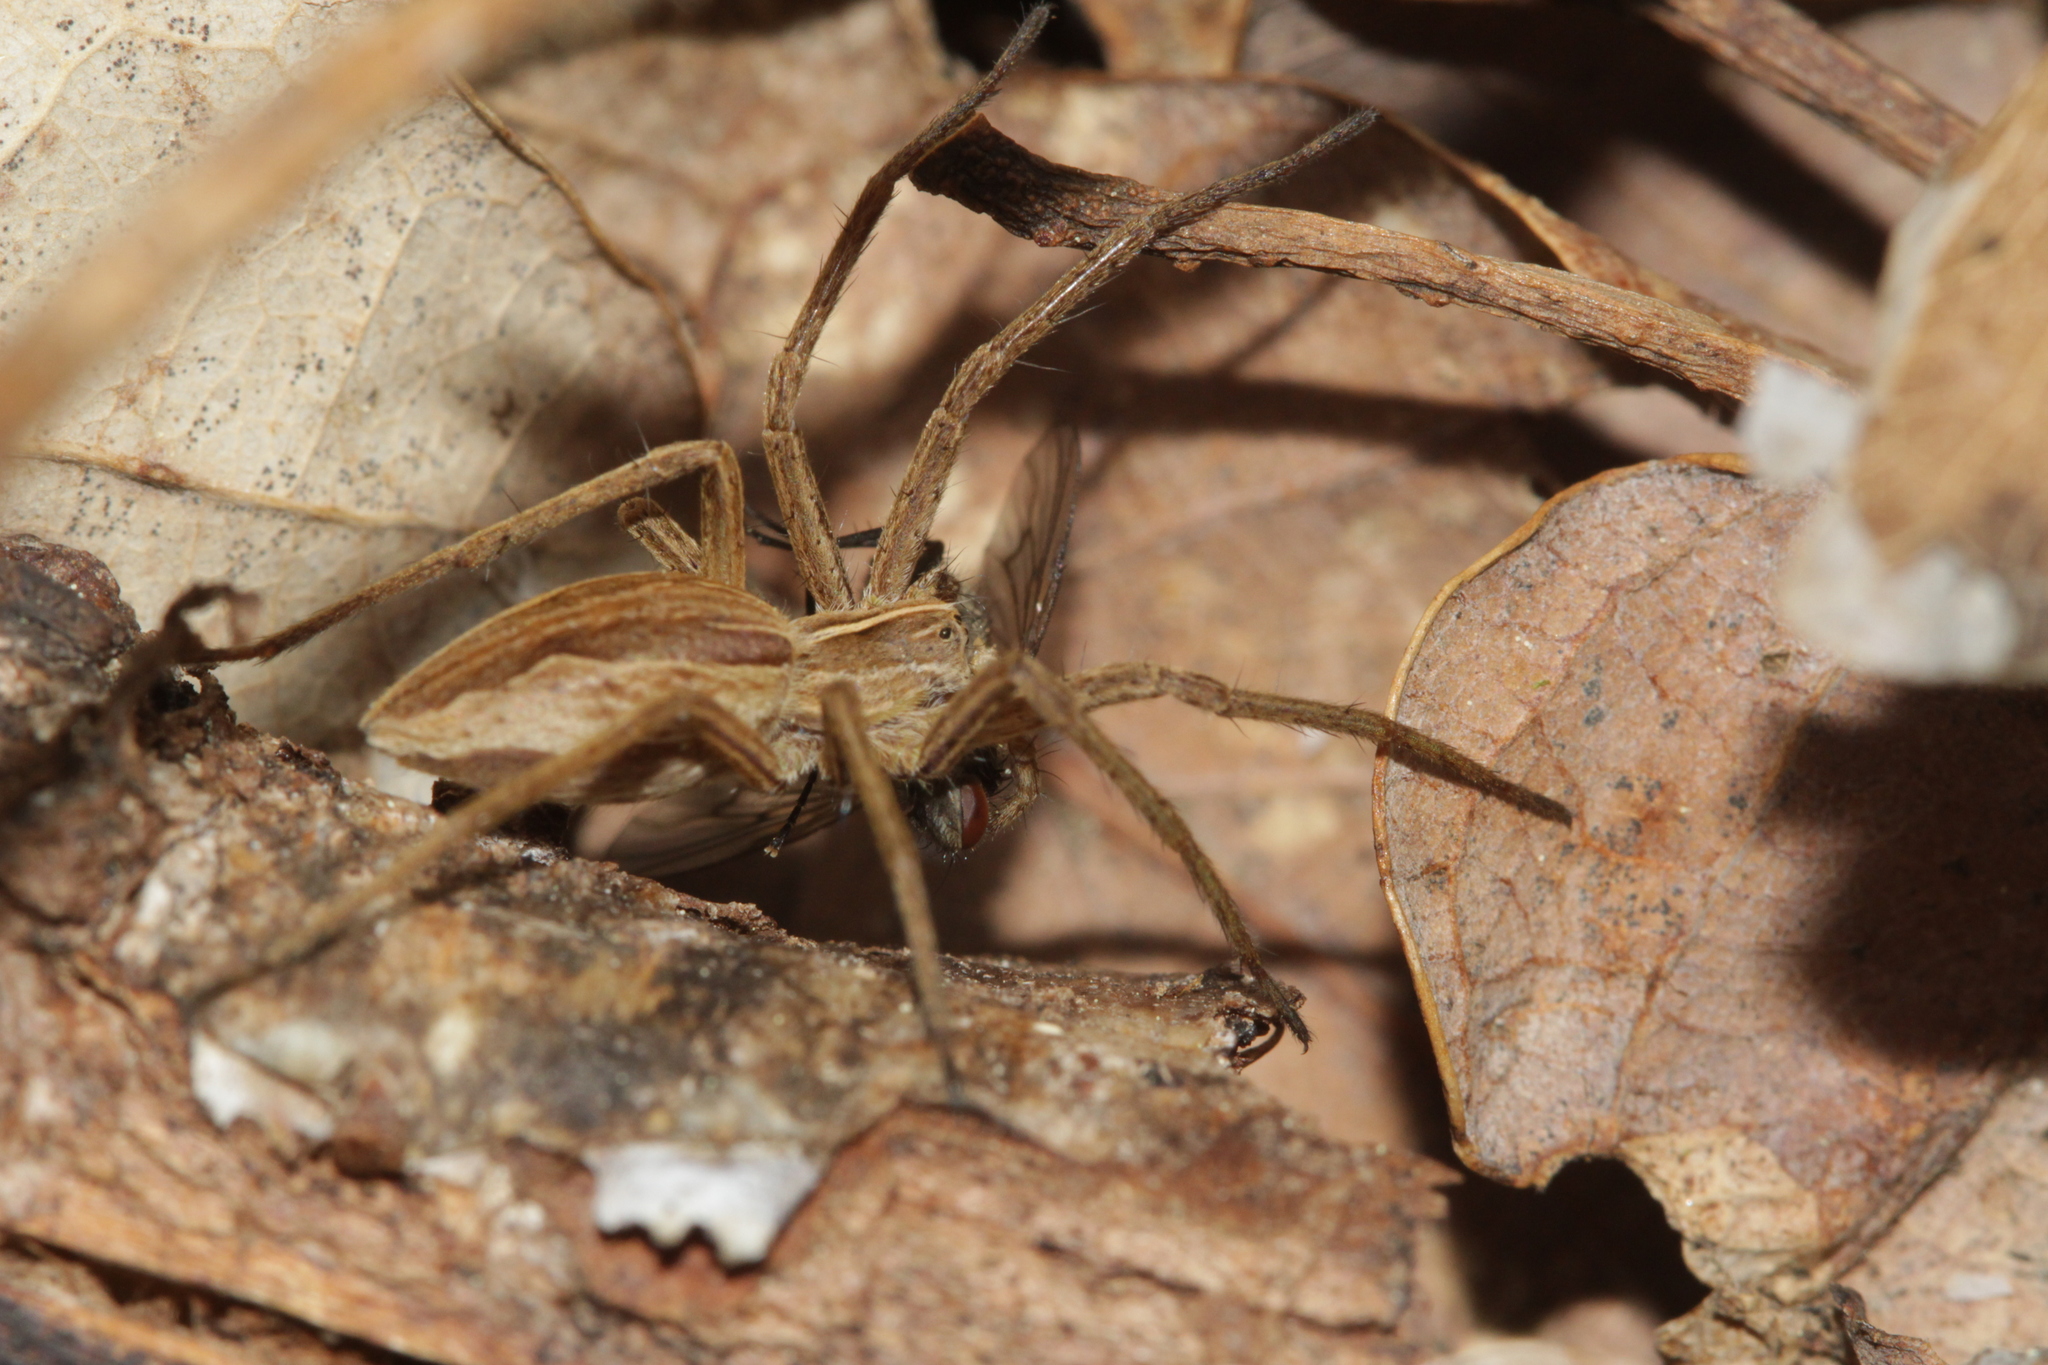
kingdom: Animalia
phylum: Arthropoda
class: Arachnida
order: Araneae
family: Pisauridae
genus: Pisaura
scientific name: Pisaura mirabilis
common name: Tent spider
